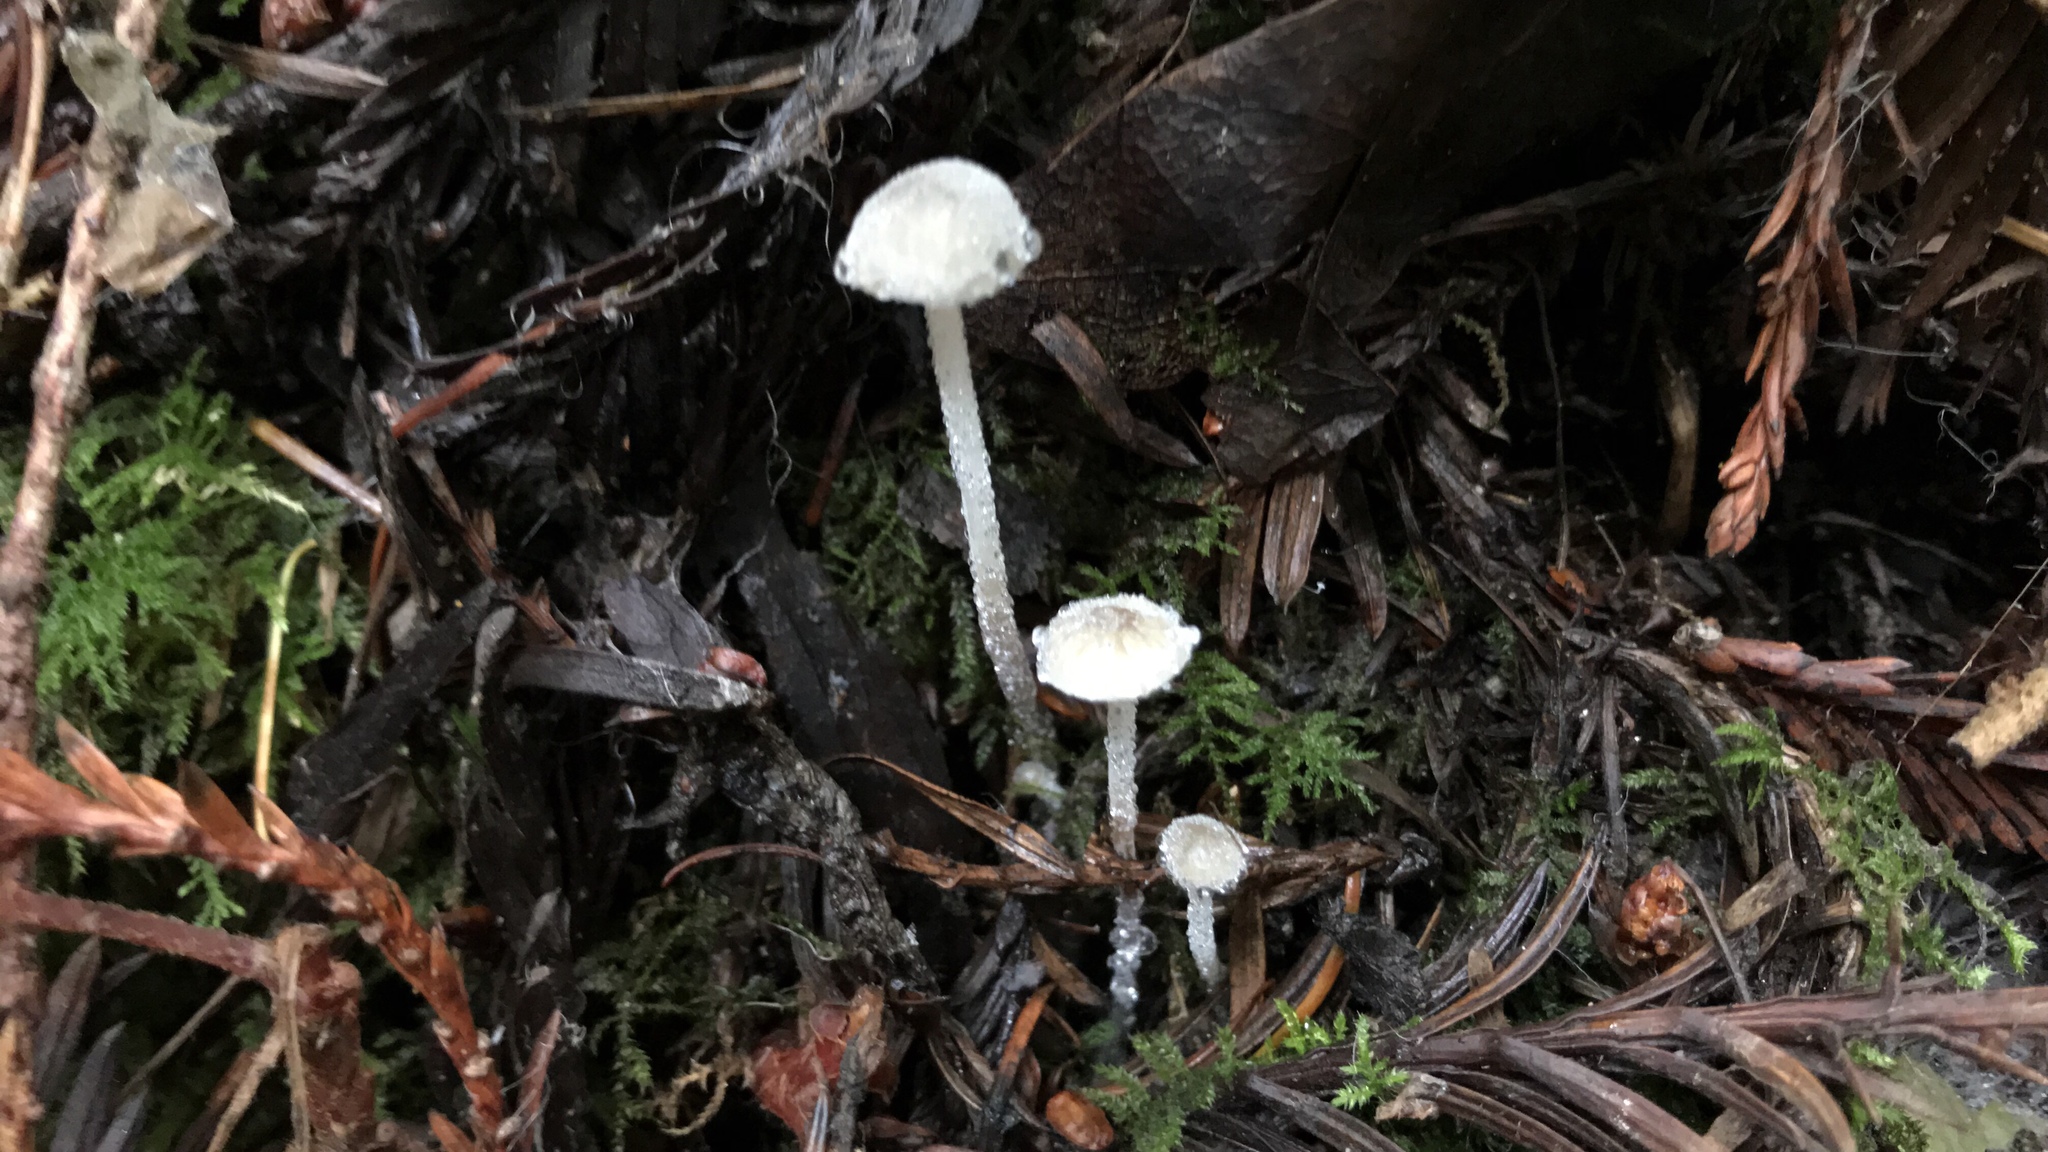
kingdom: Fungi
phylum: Basidiomycota
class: Agaricomycetes
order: Agaricales
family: Physalacriaceae
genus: Rhizomarasmius
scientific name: Rhizomarasmius undatus
